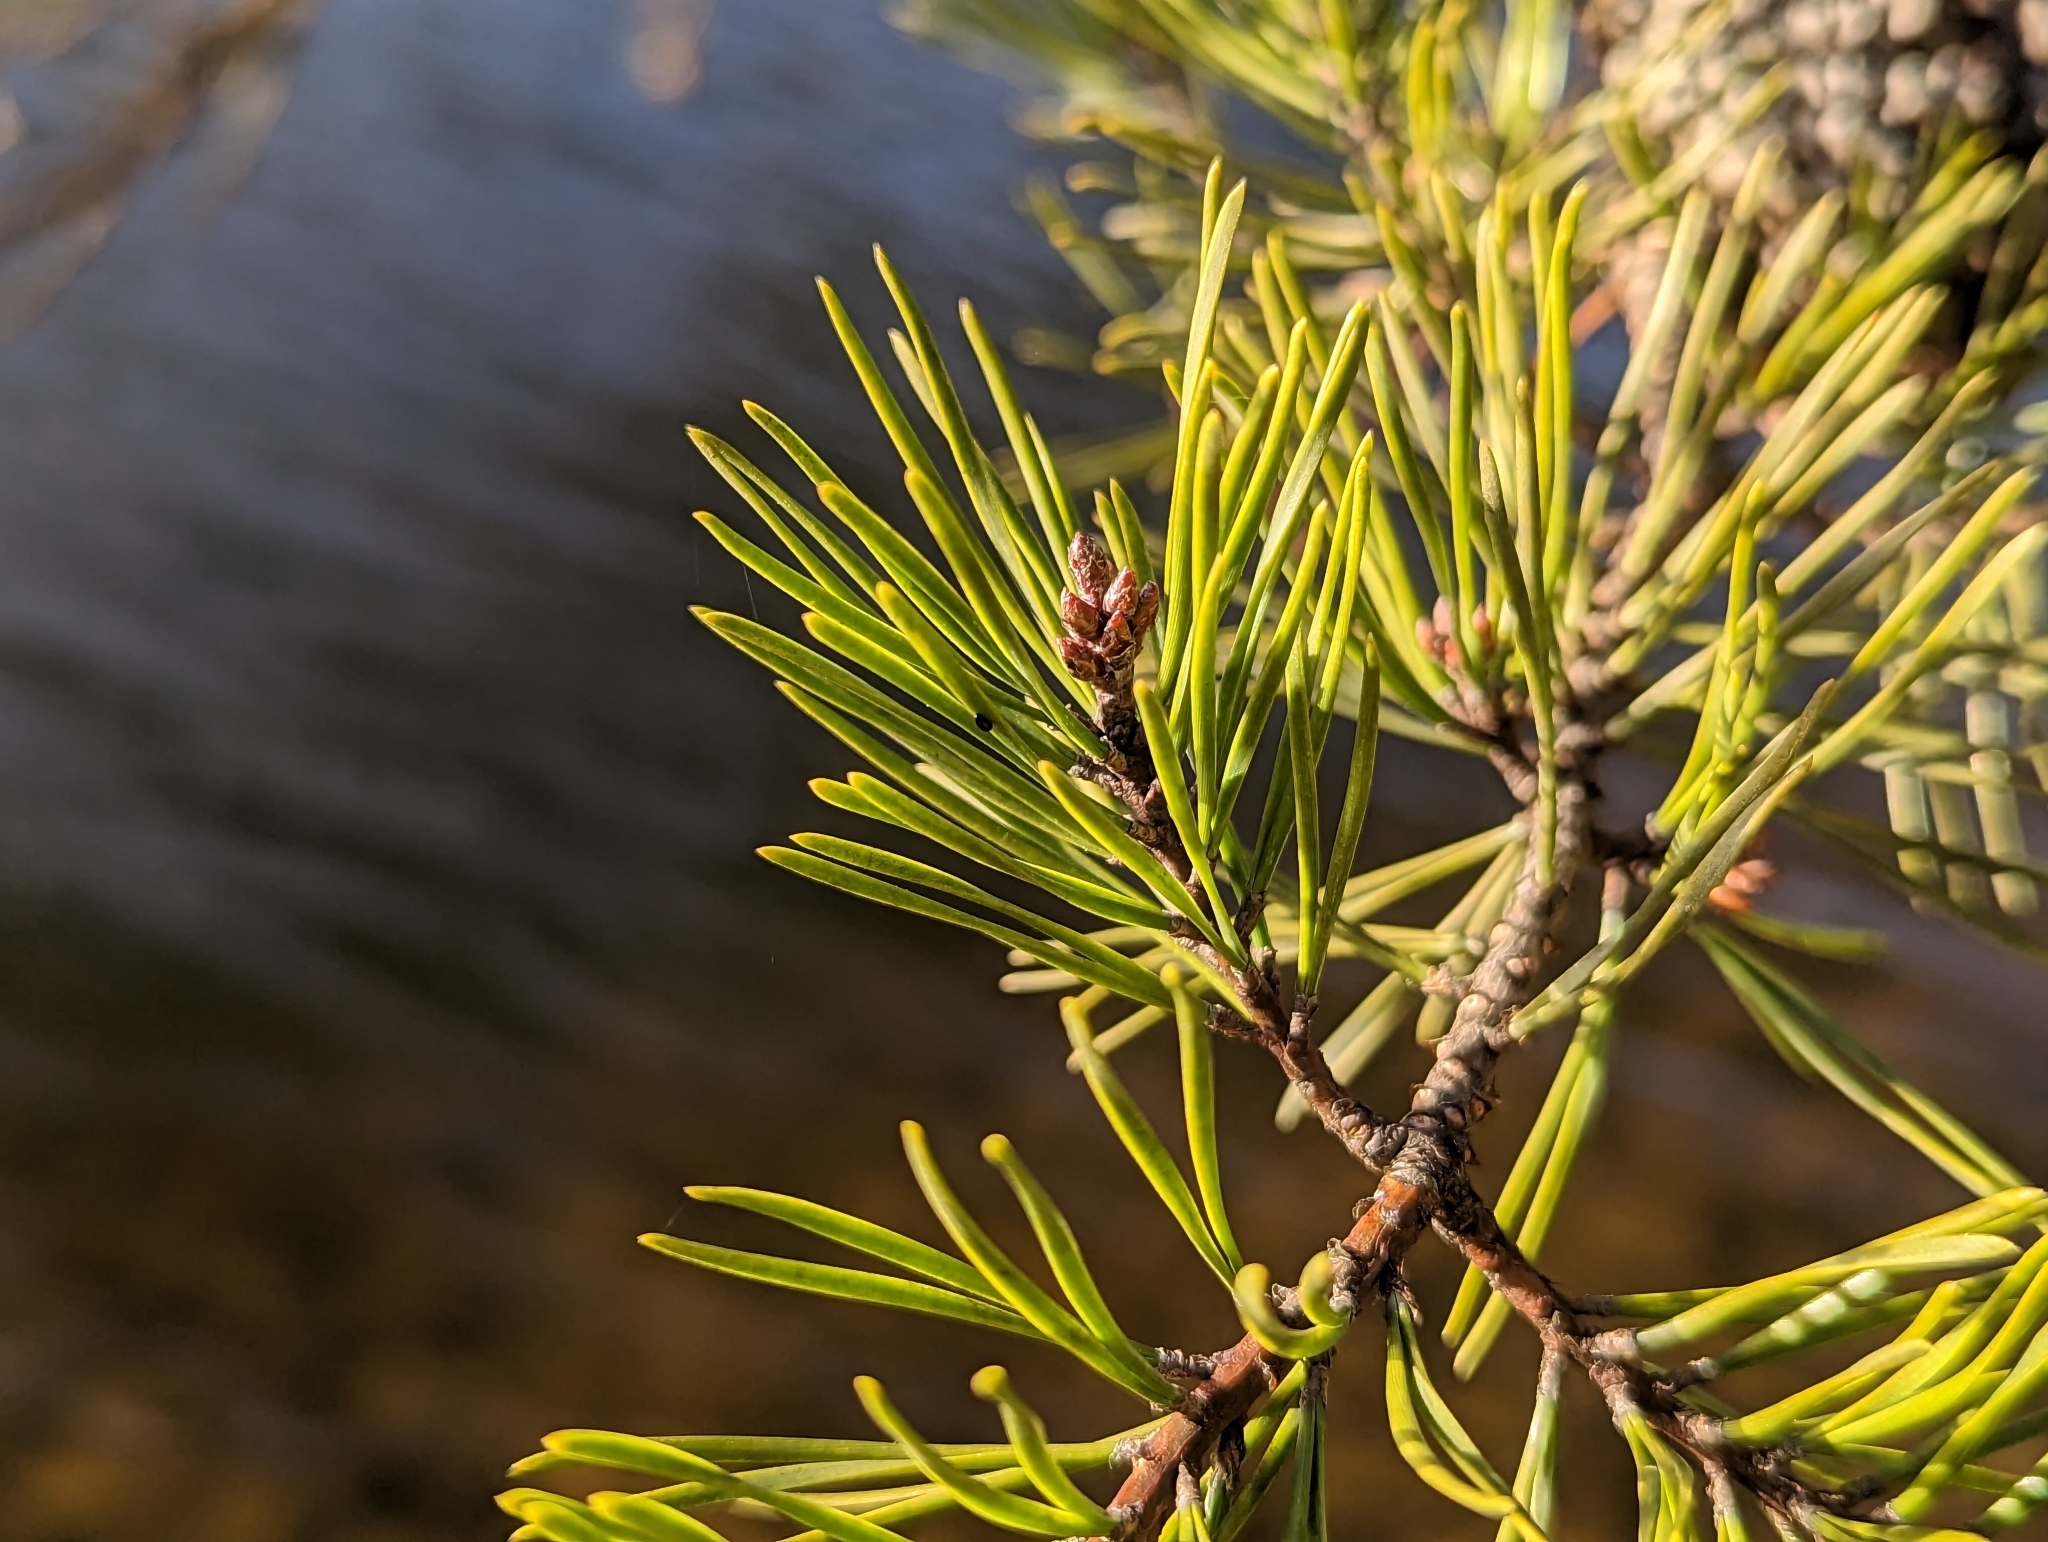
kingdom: Plantae
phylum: Tracheophyta
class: Pinopsida
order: Pinales
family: Pinaceae
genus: Pinus
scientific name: Pinus virginiana
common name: Scrub pine
